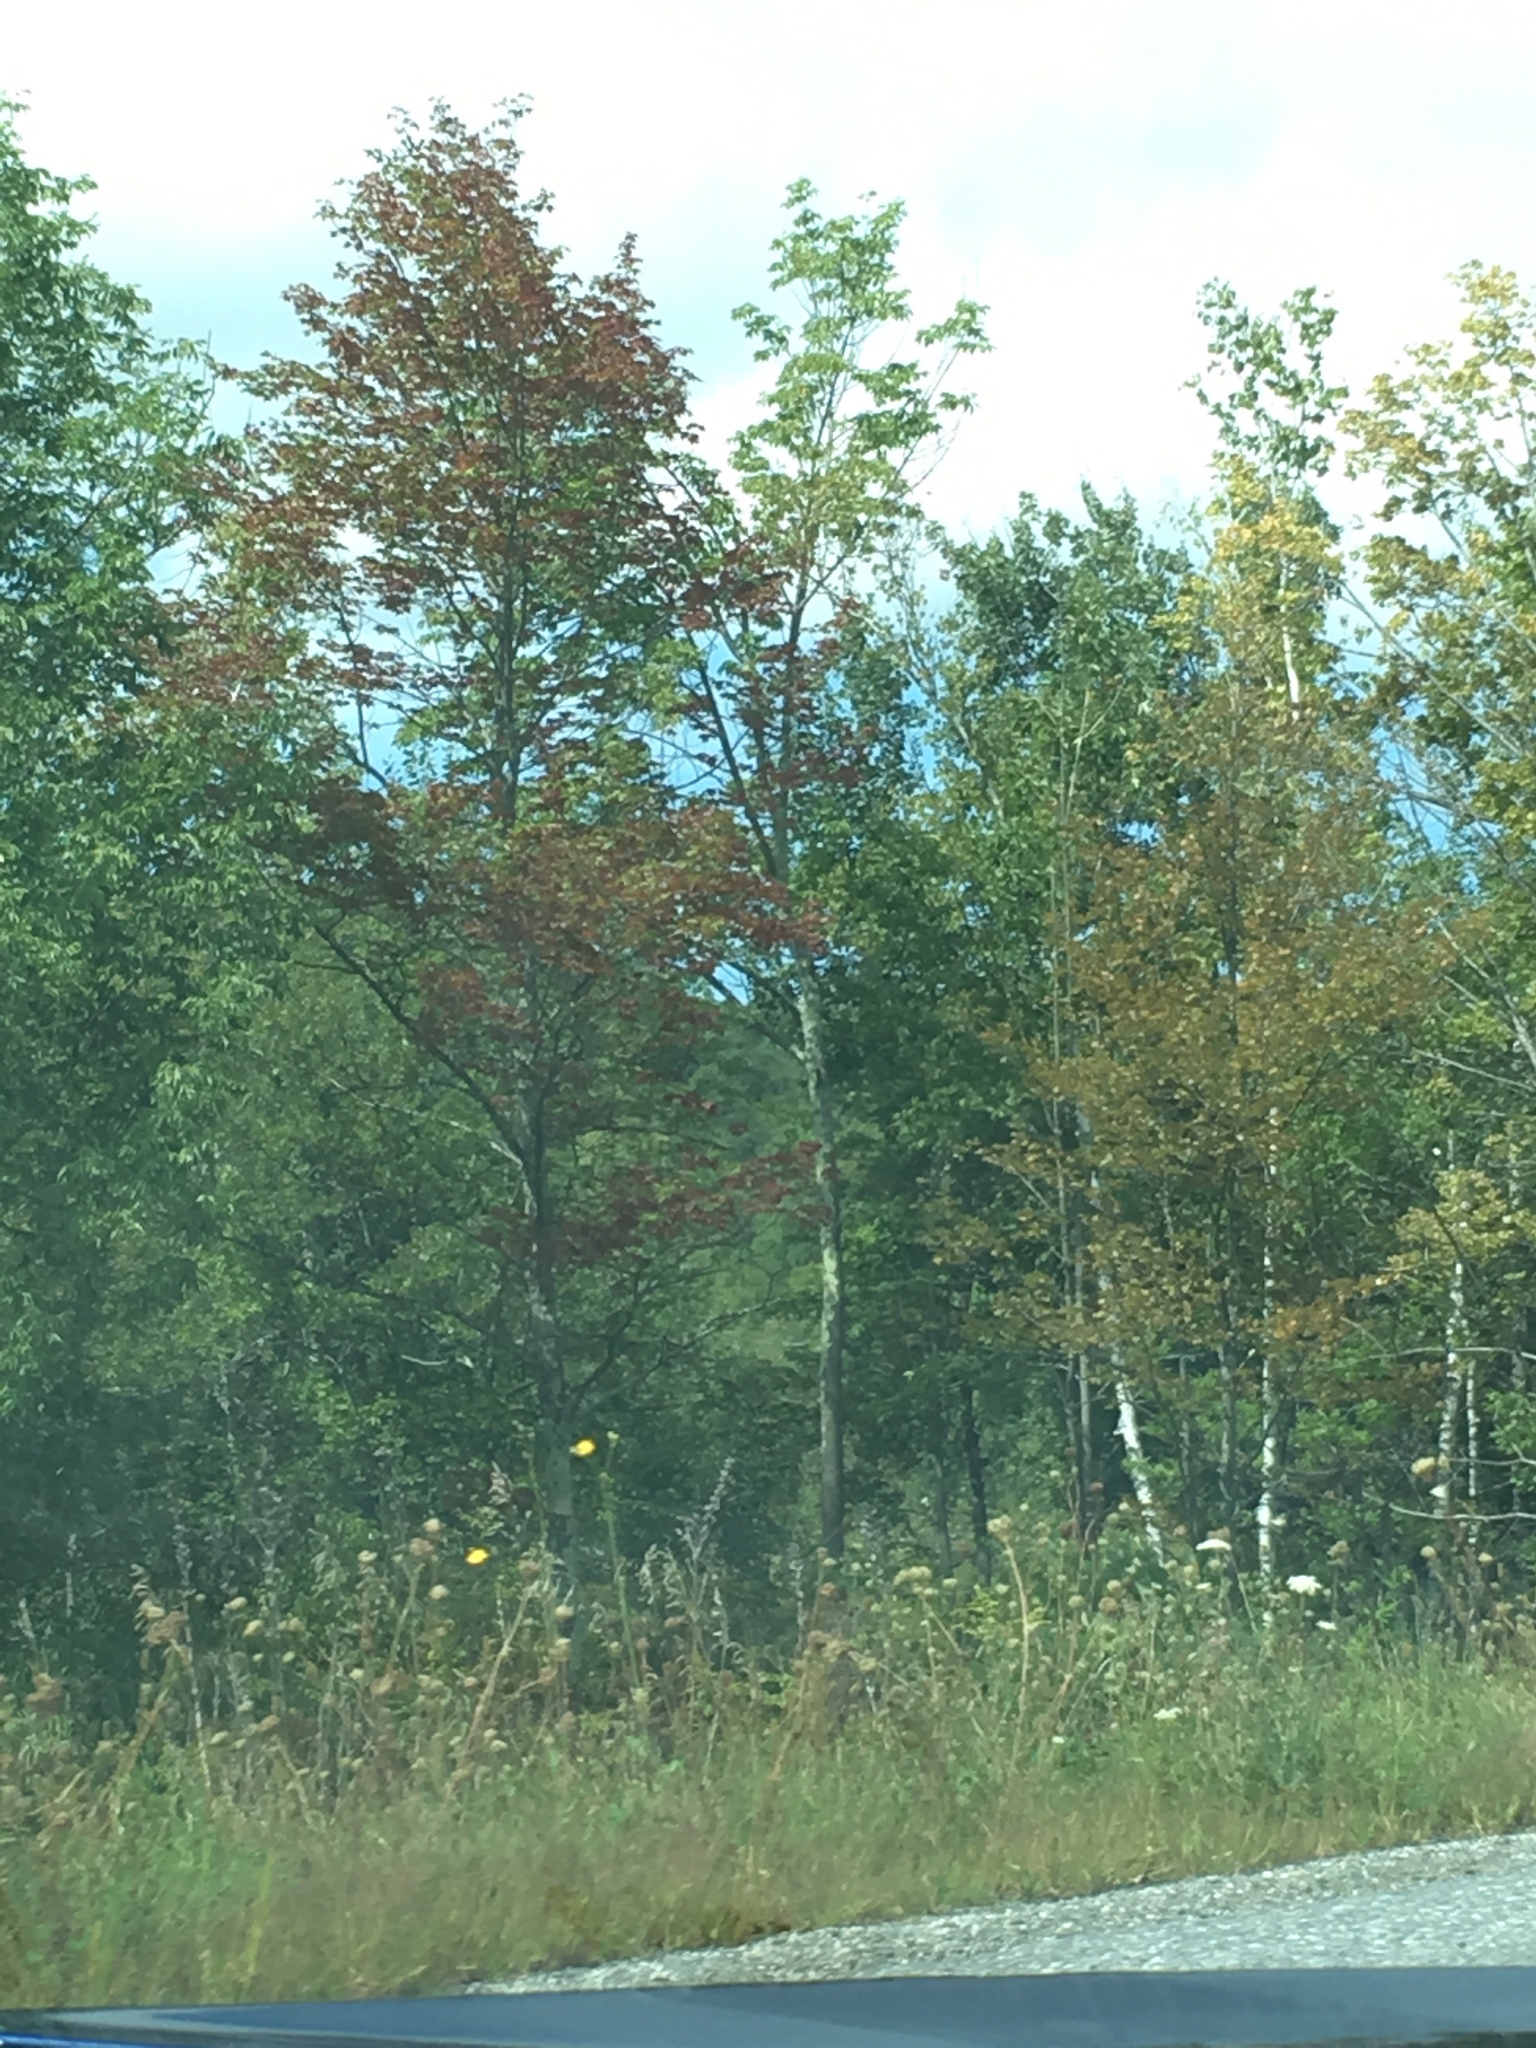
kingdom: Plantae
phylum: Tracheophyta
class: Magnoliopsida
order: Sapindales
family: Sapindaceae
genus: Acer
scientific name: Acer rubrum
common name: Red maple
